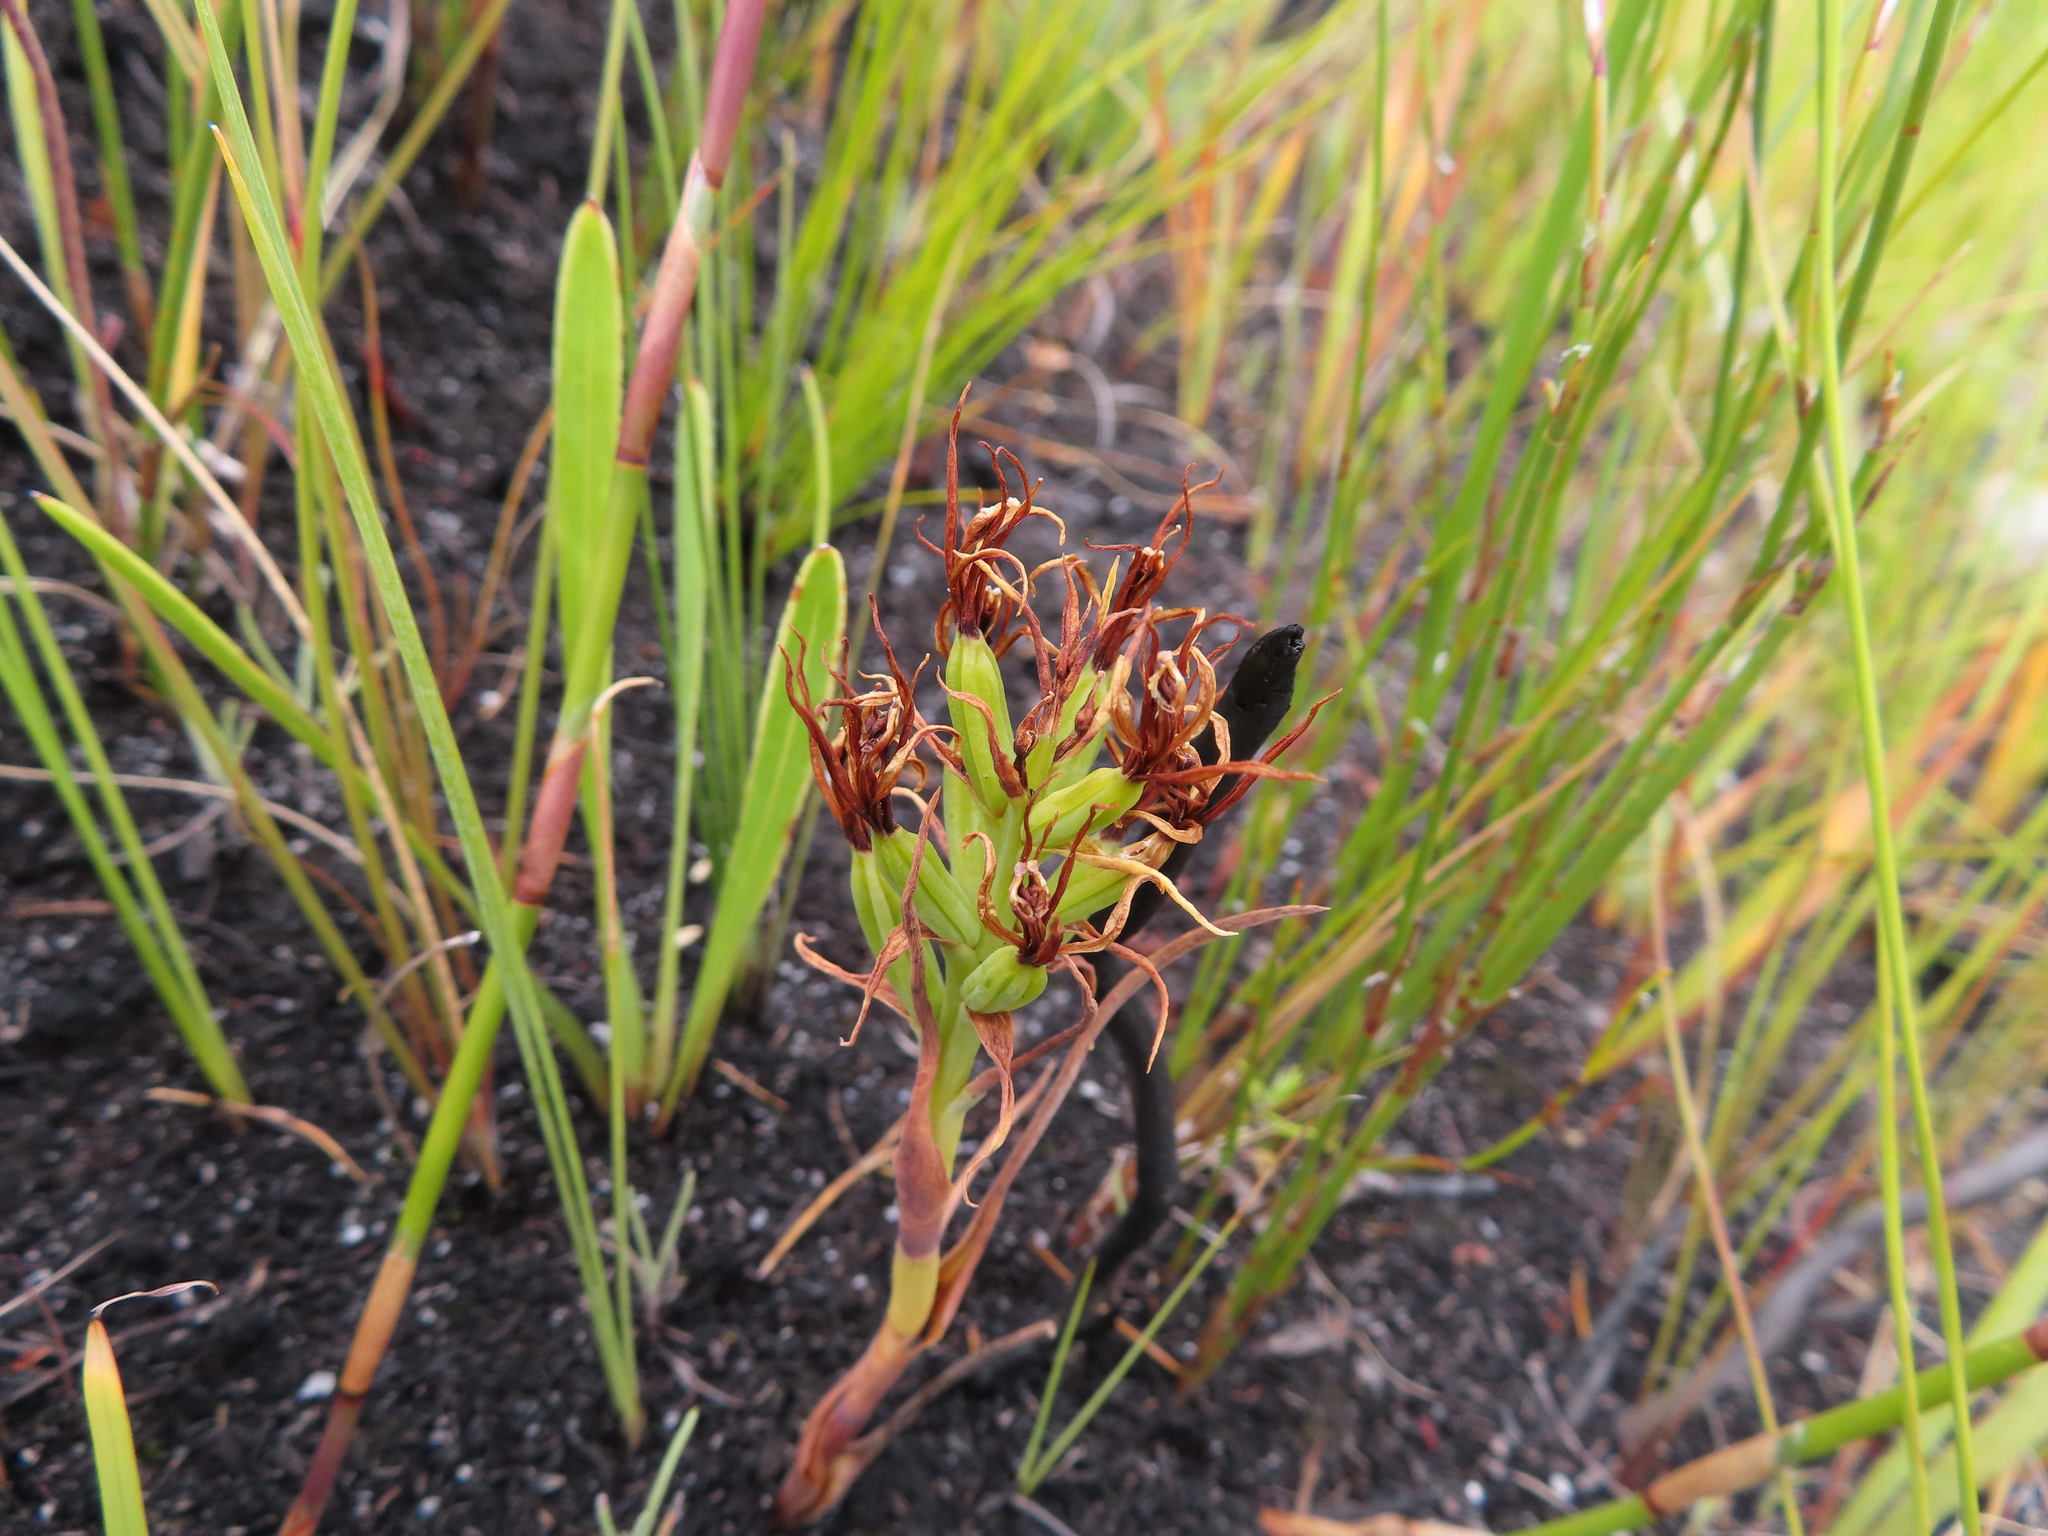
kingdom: Plantae
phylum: Tracheophyta
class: Liliopsida
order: Asparagales
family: Orchidaceae
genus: Pachites
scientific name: Pachites bodkinii
